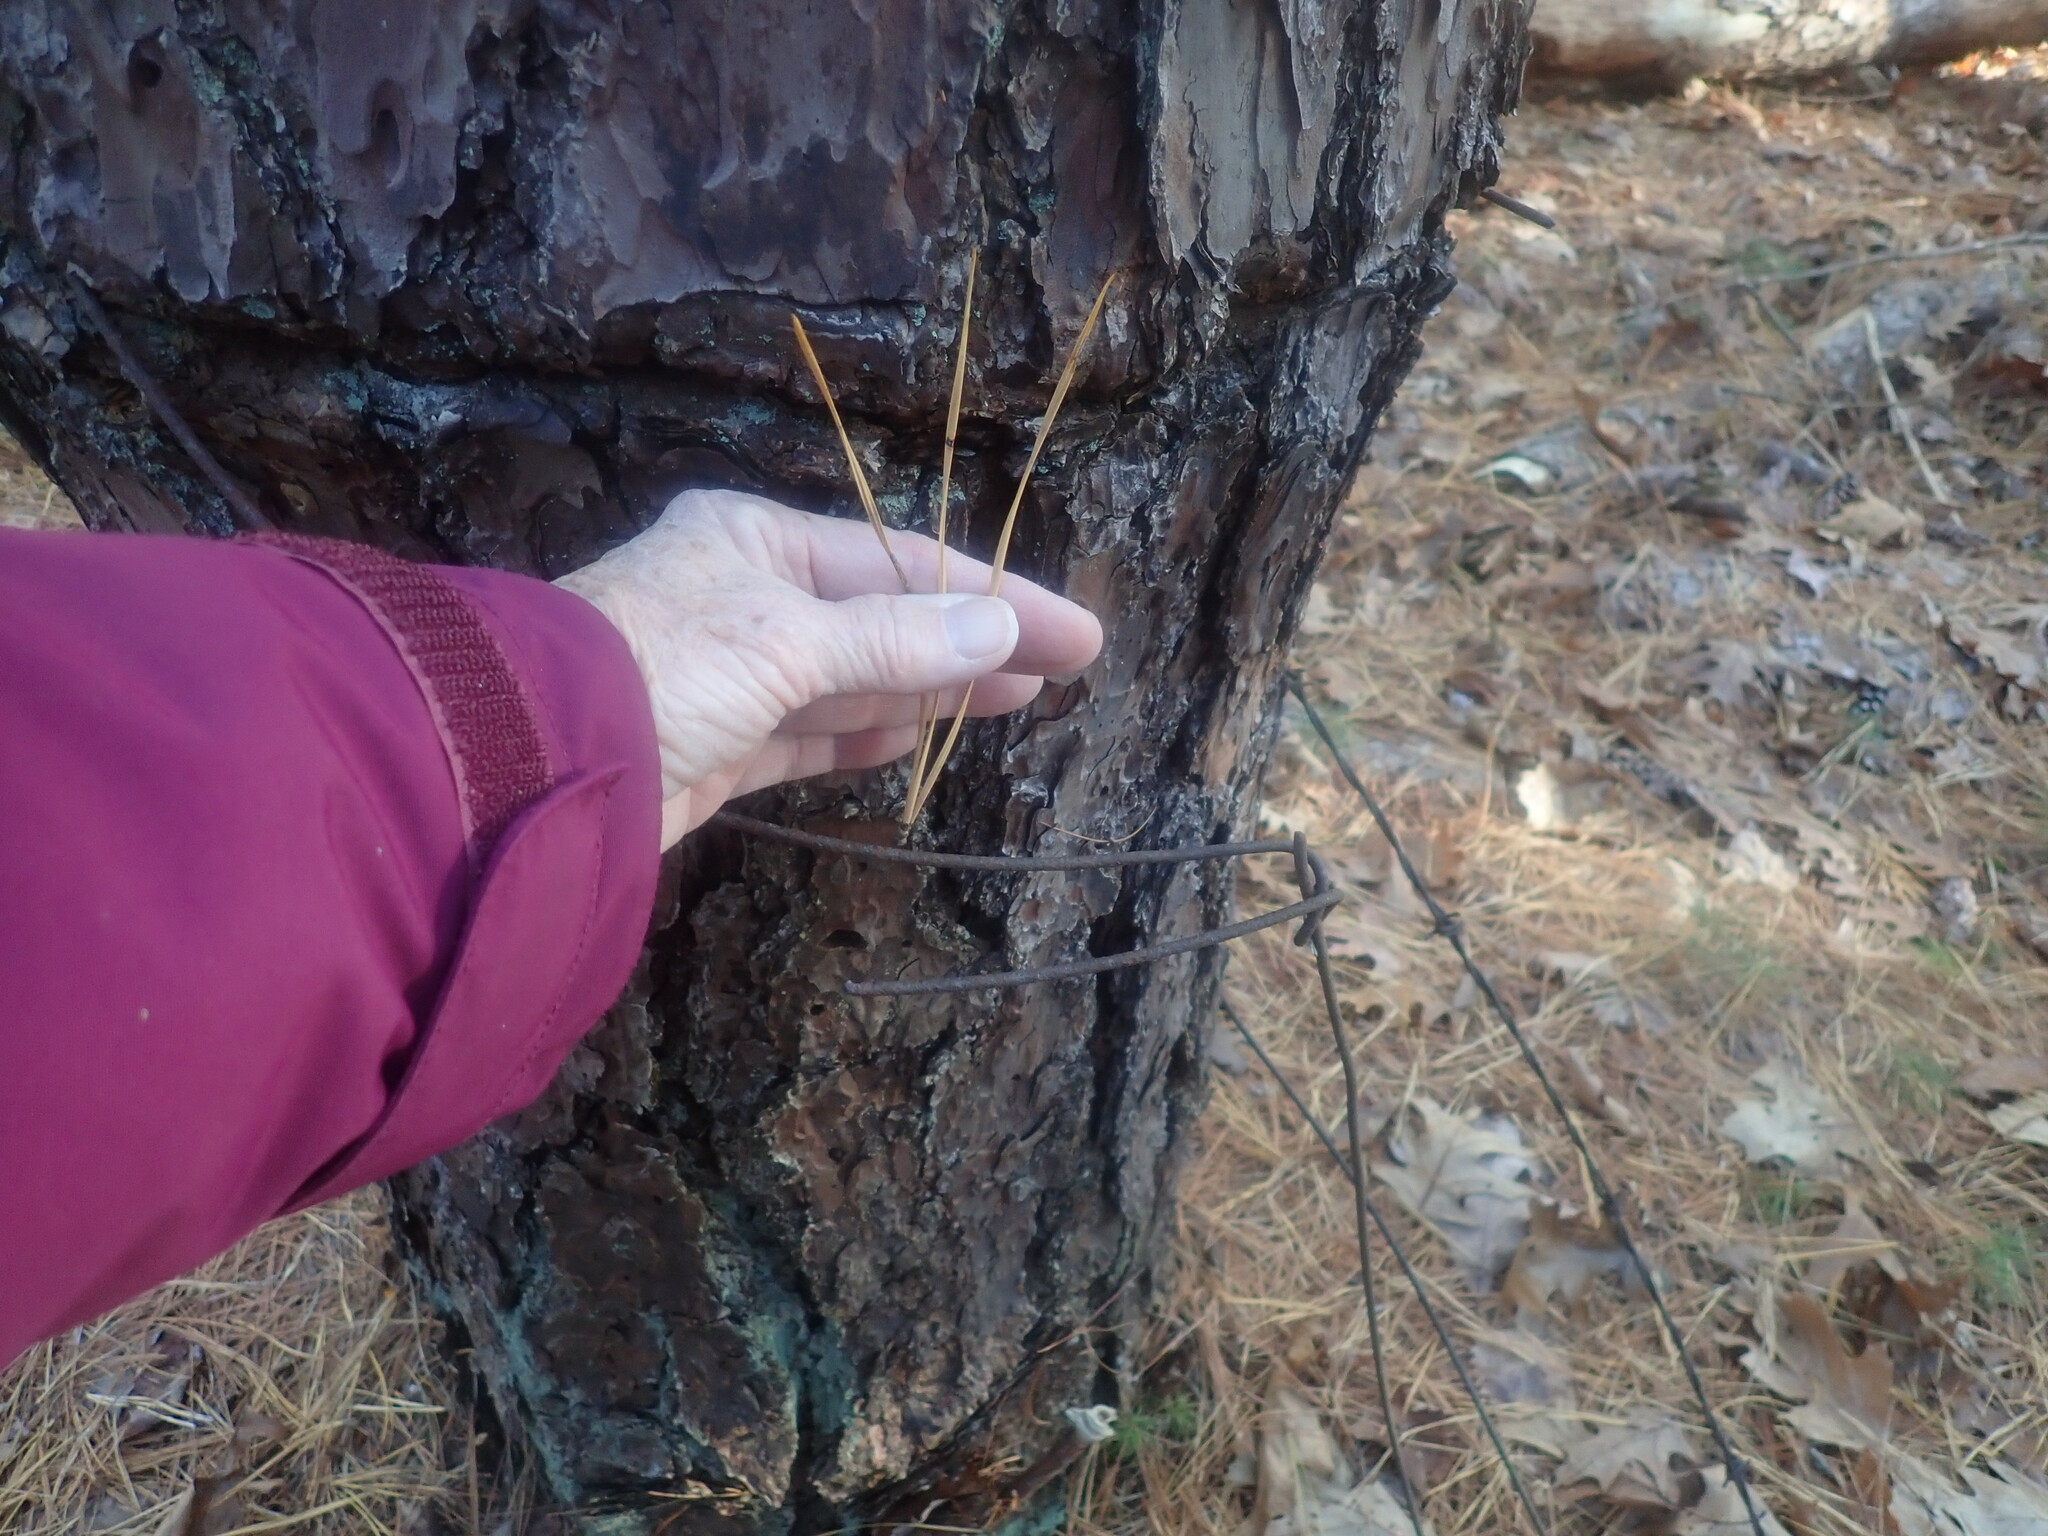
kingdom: Plantae
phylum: Tracheophyta
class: Pinopsida
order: Pinales
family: Pinaceae
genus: Pinus
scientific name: Pinus rigida
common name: Pitch pine
